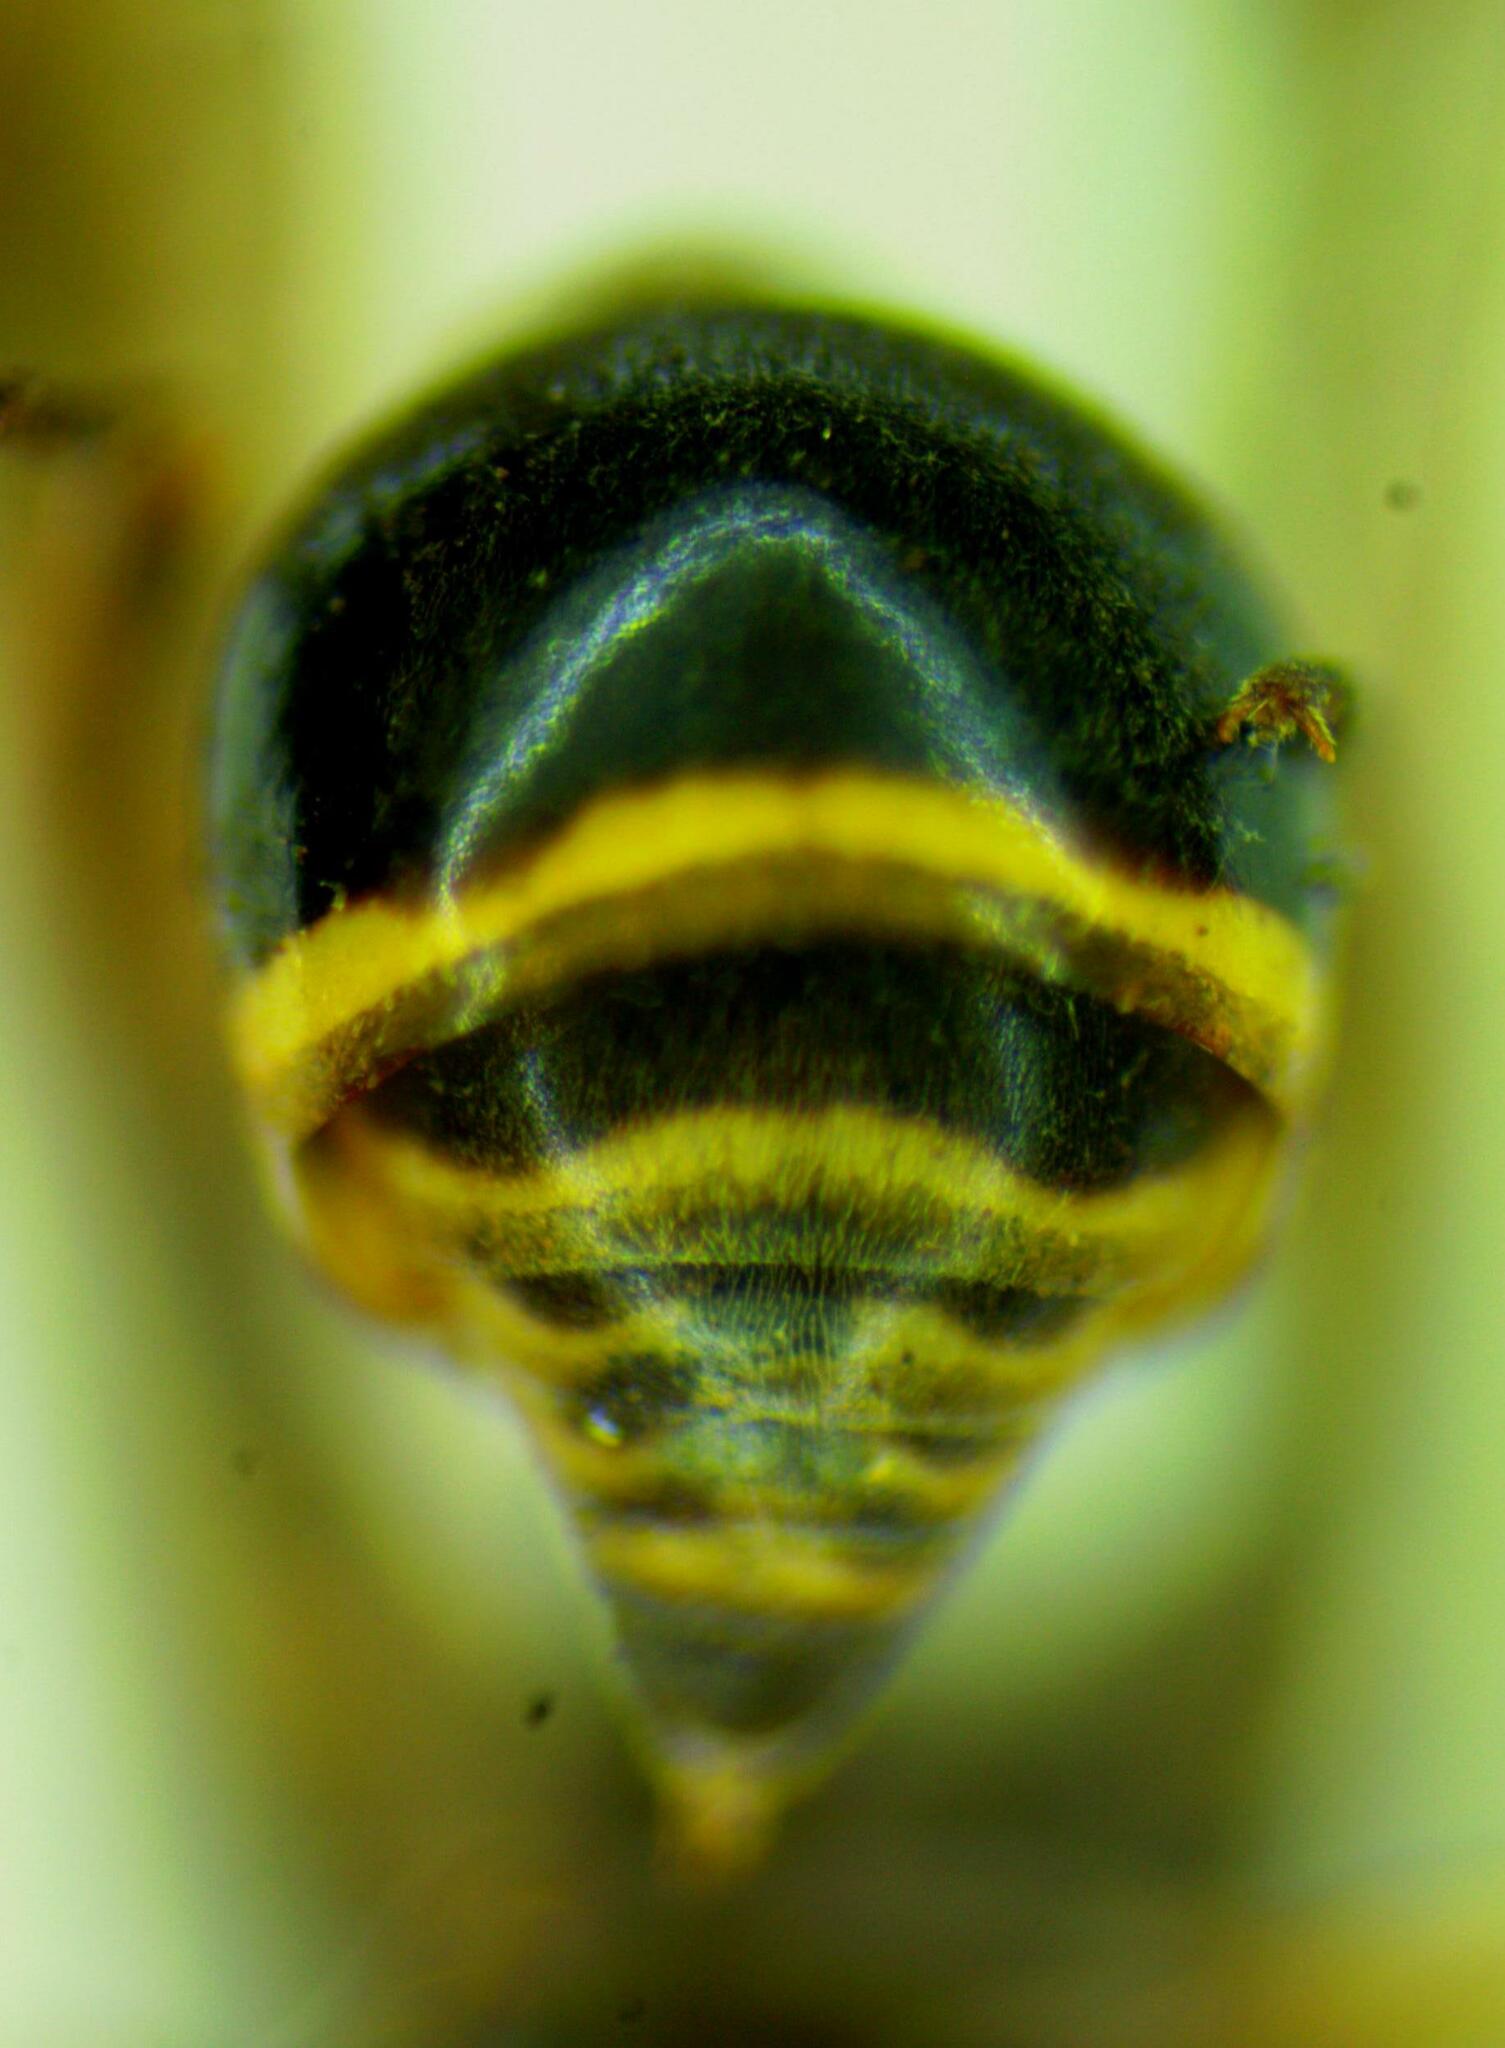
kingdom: Animalia
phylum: Arthropoda
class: Insecta
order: Hymenoptera
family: Eumenidae
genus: Omicron
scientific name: Omicron spegazzinii
